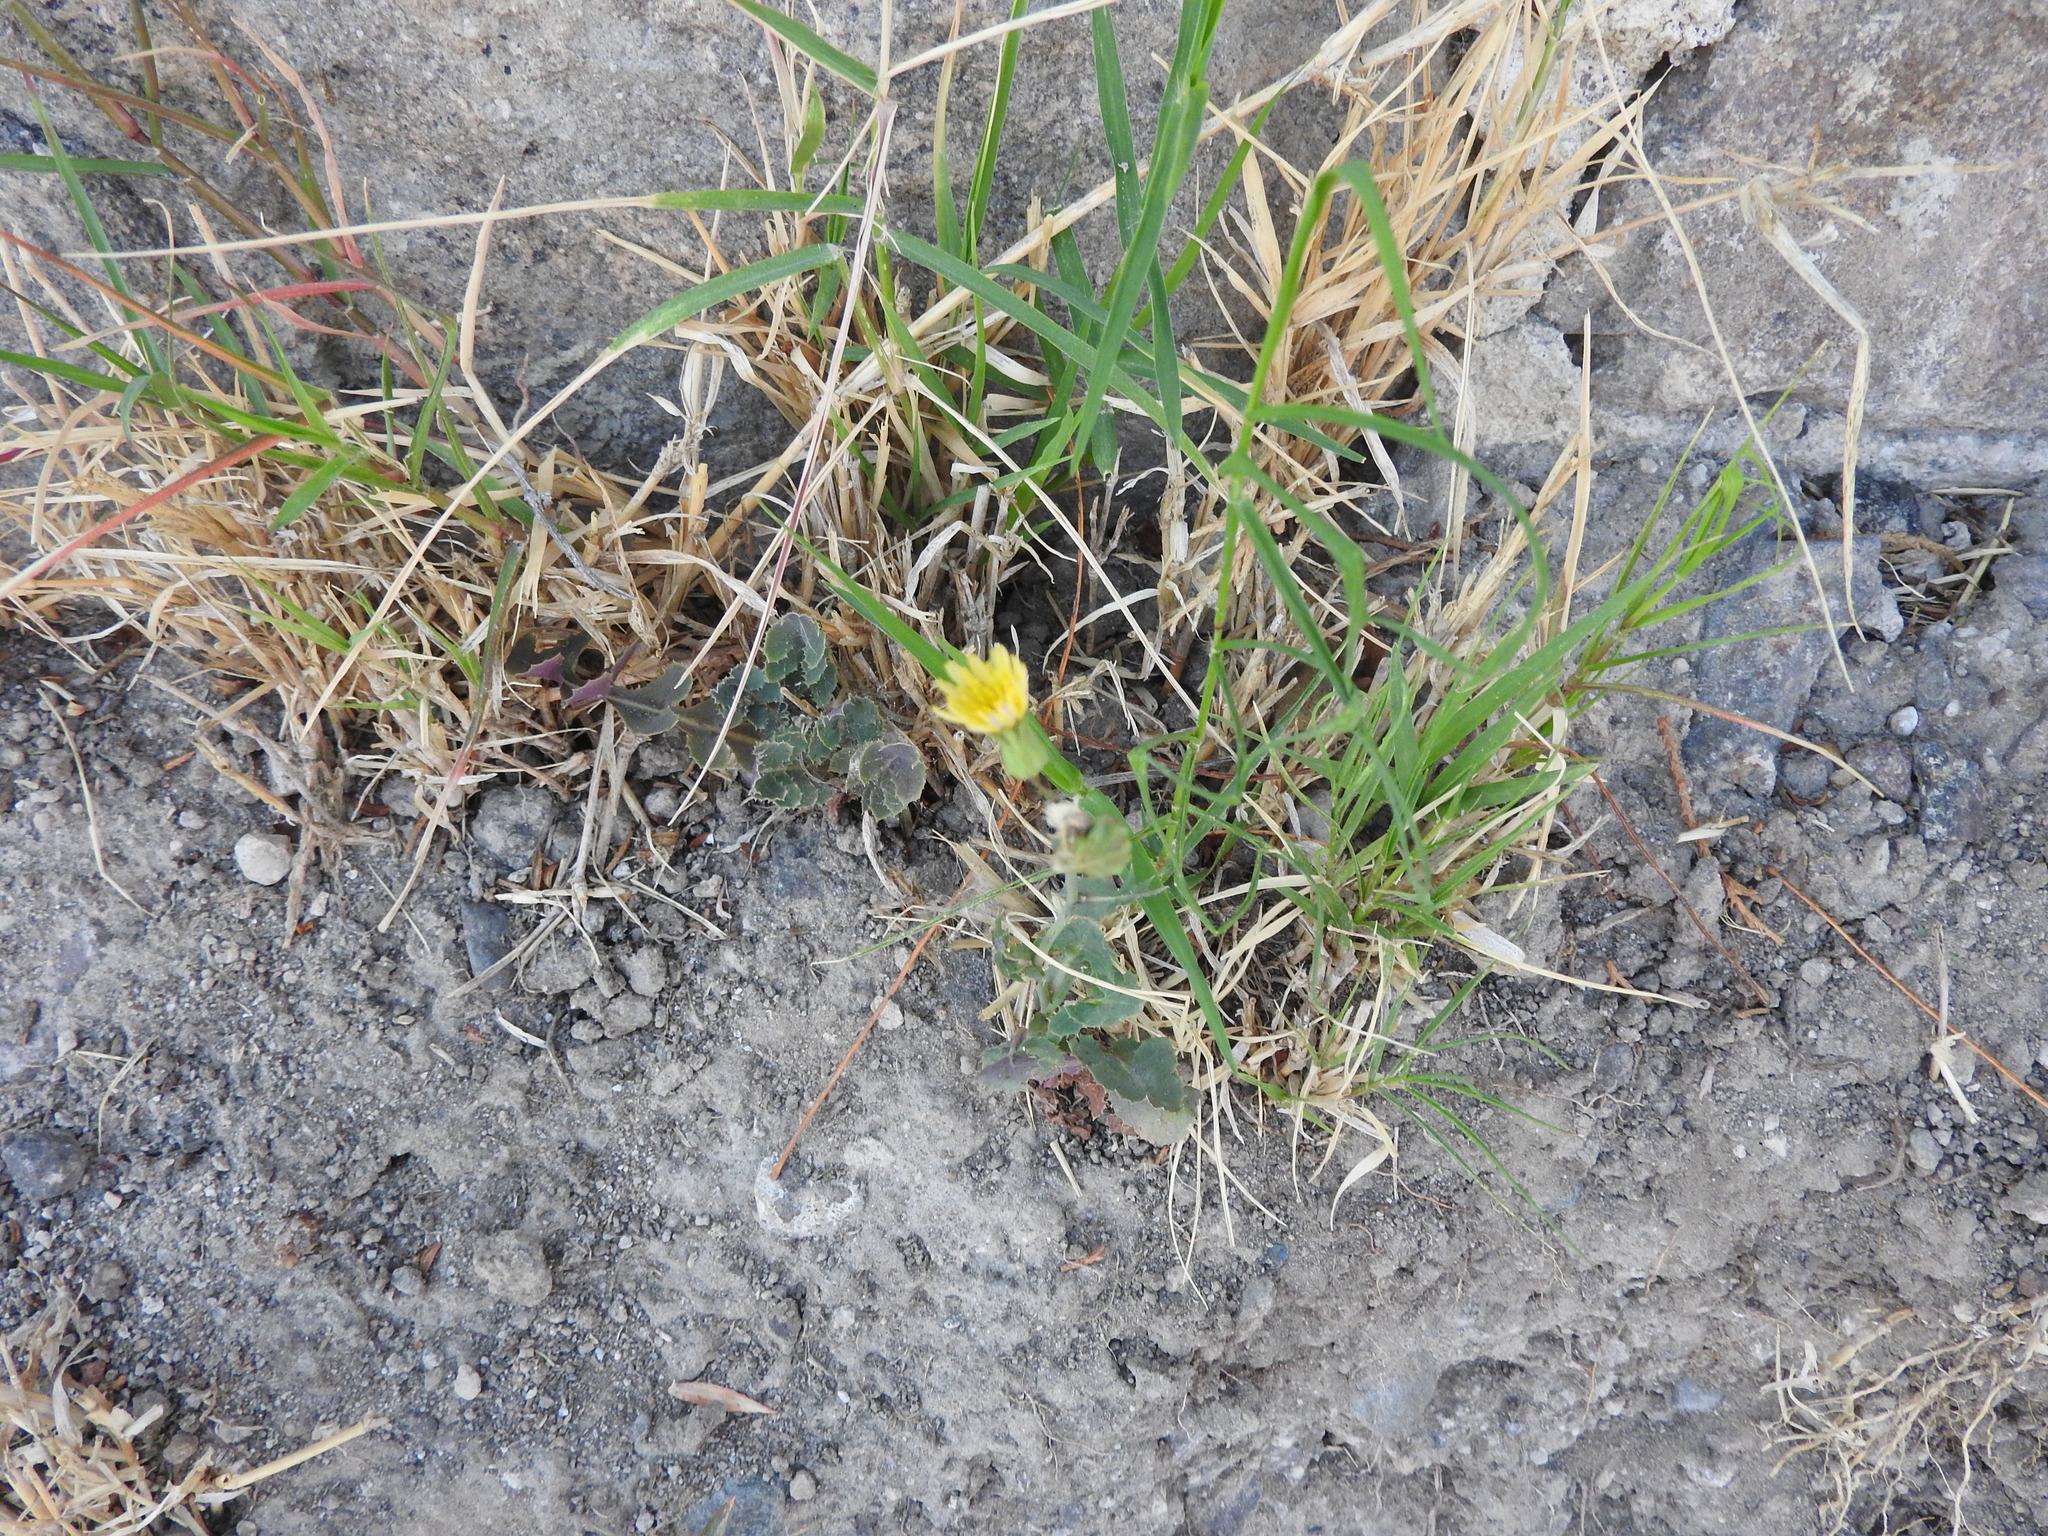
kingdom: Plantae
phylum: Tracheophyta
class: Magnoliopsida
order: Oxalidales
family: Oxalidaceae
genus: Oxalis
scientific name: Oxalis corniculata
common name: Procumbent yellow-sorrel
